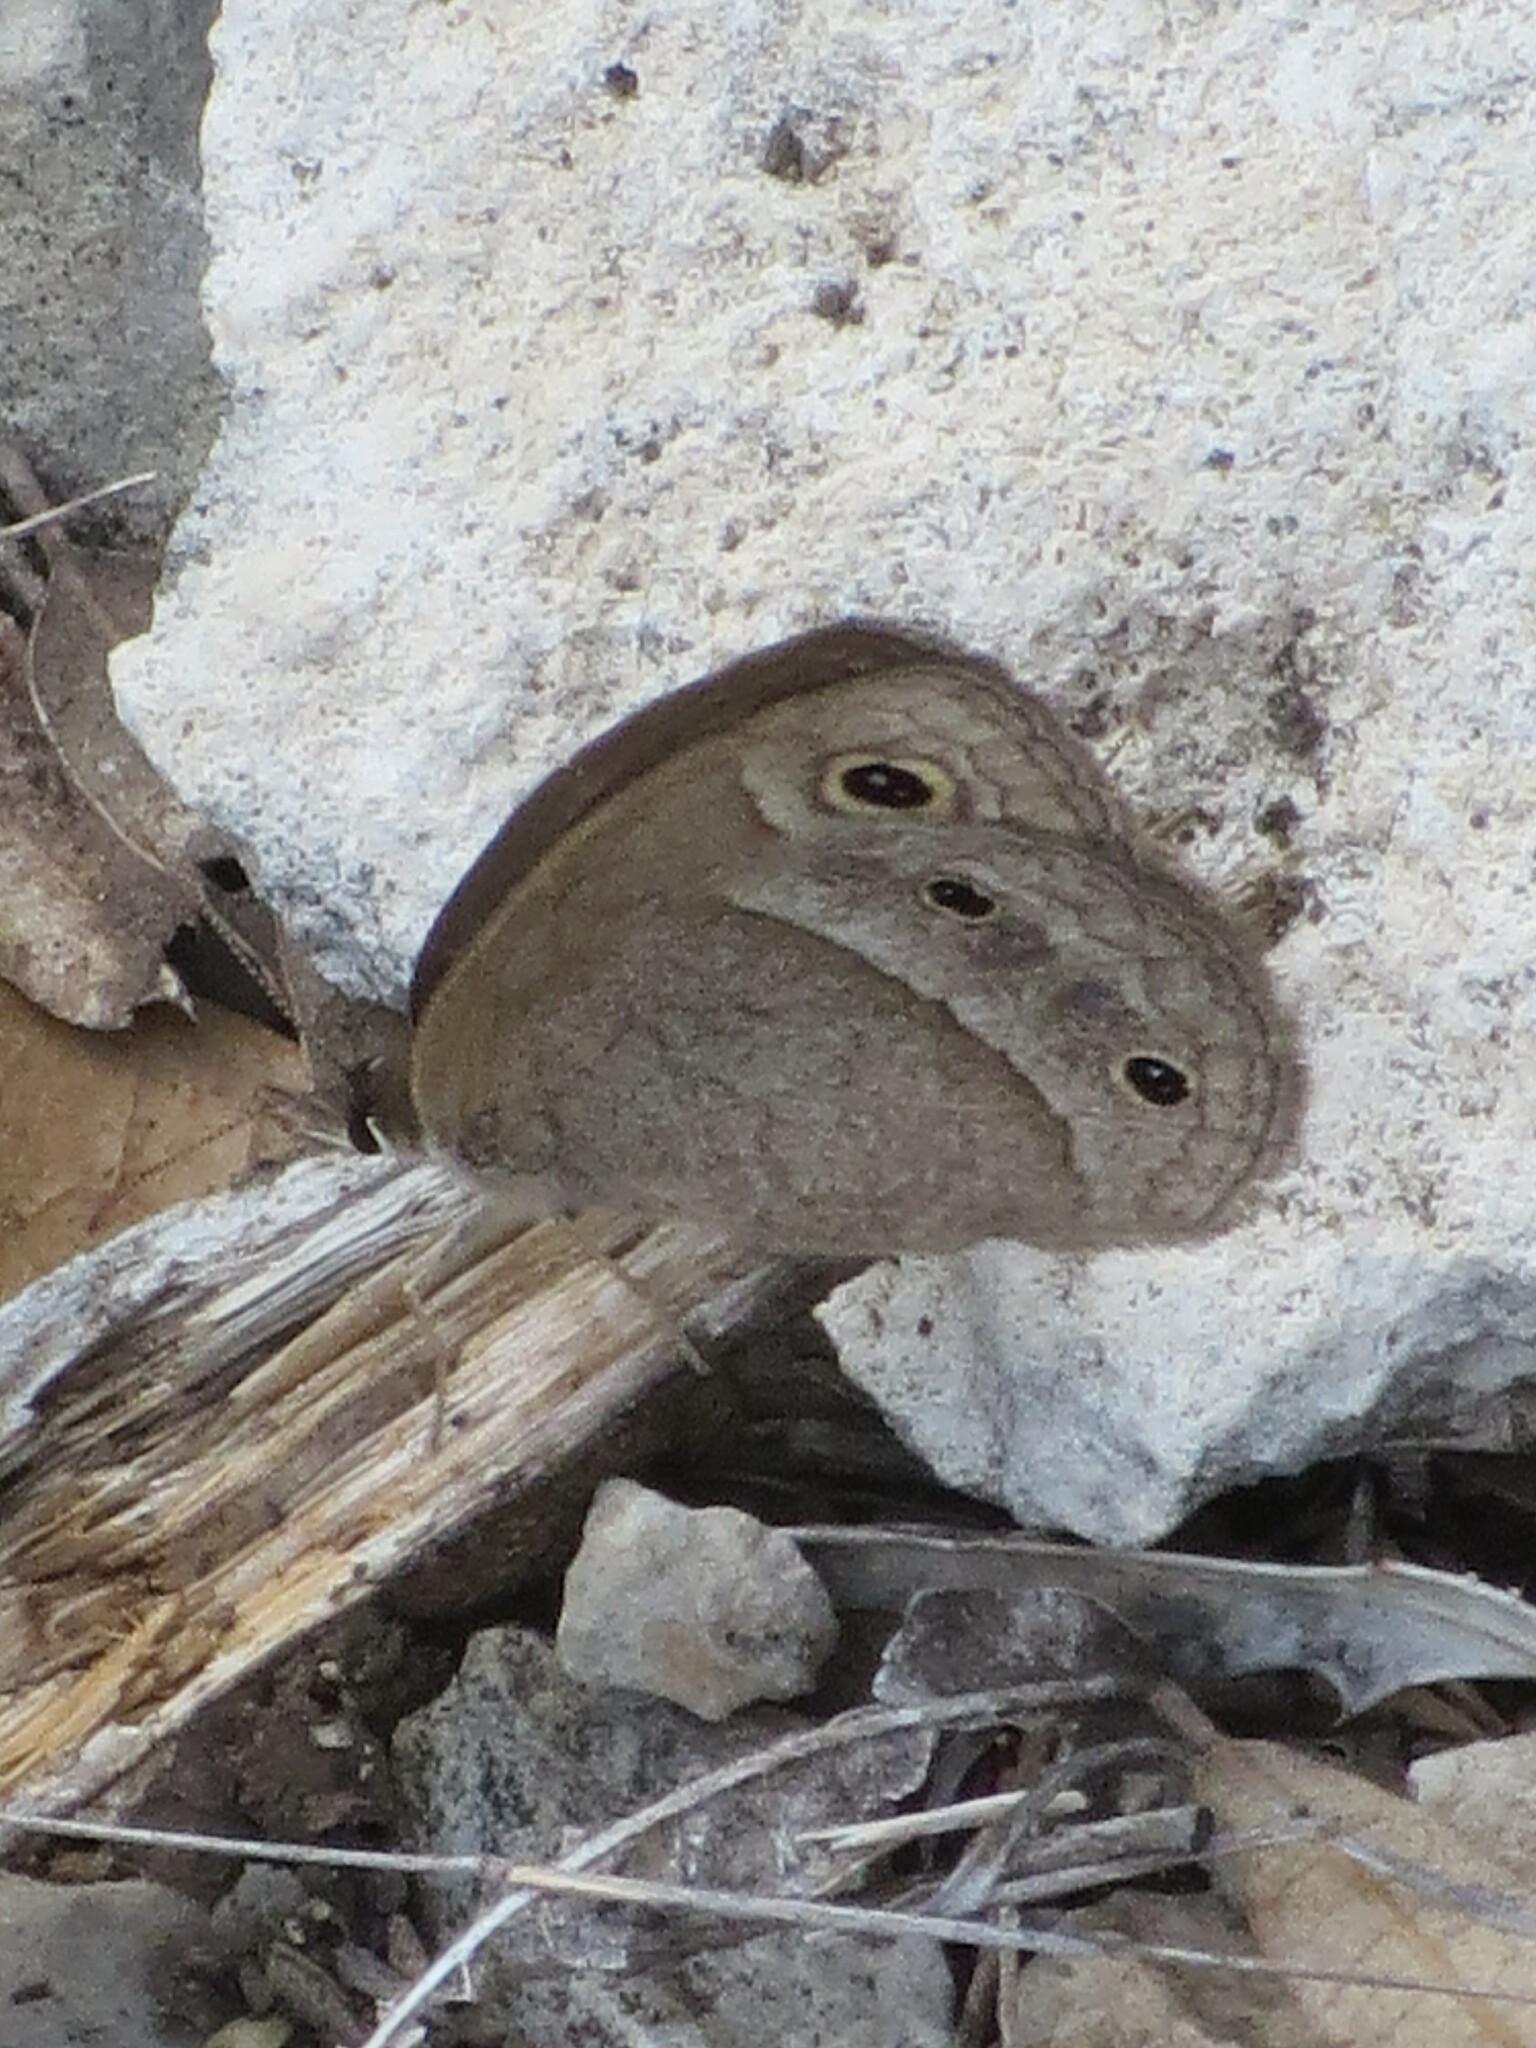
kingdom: Animalia
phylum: Arthropoda
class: Insecta
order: Lepidoptera
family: Nymphalidae
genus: Euptychia
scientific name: Euptychia Cissia rubricata
